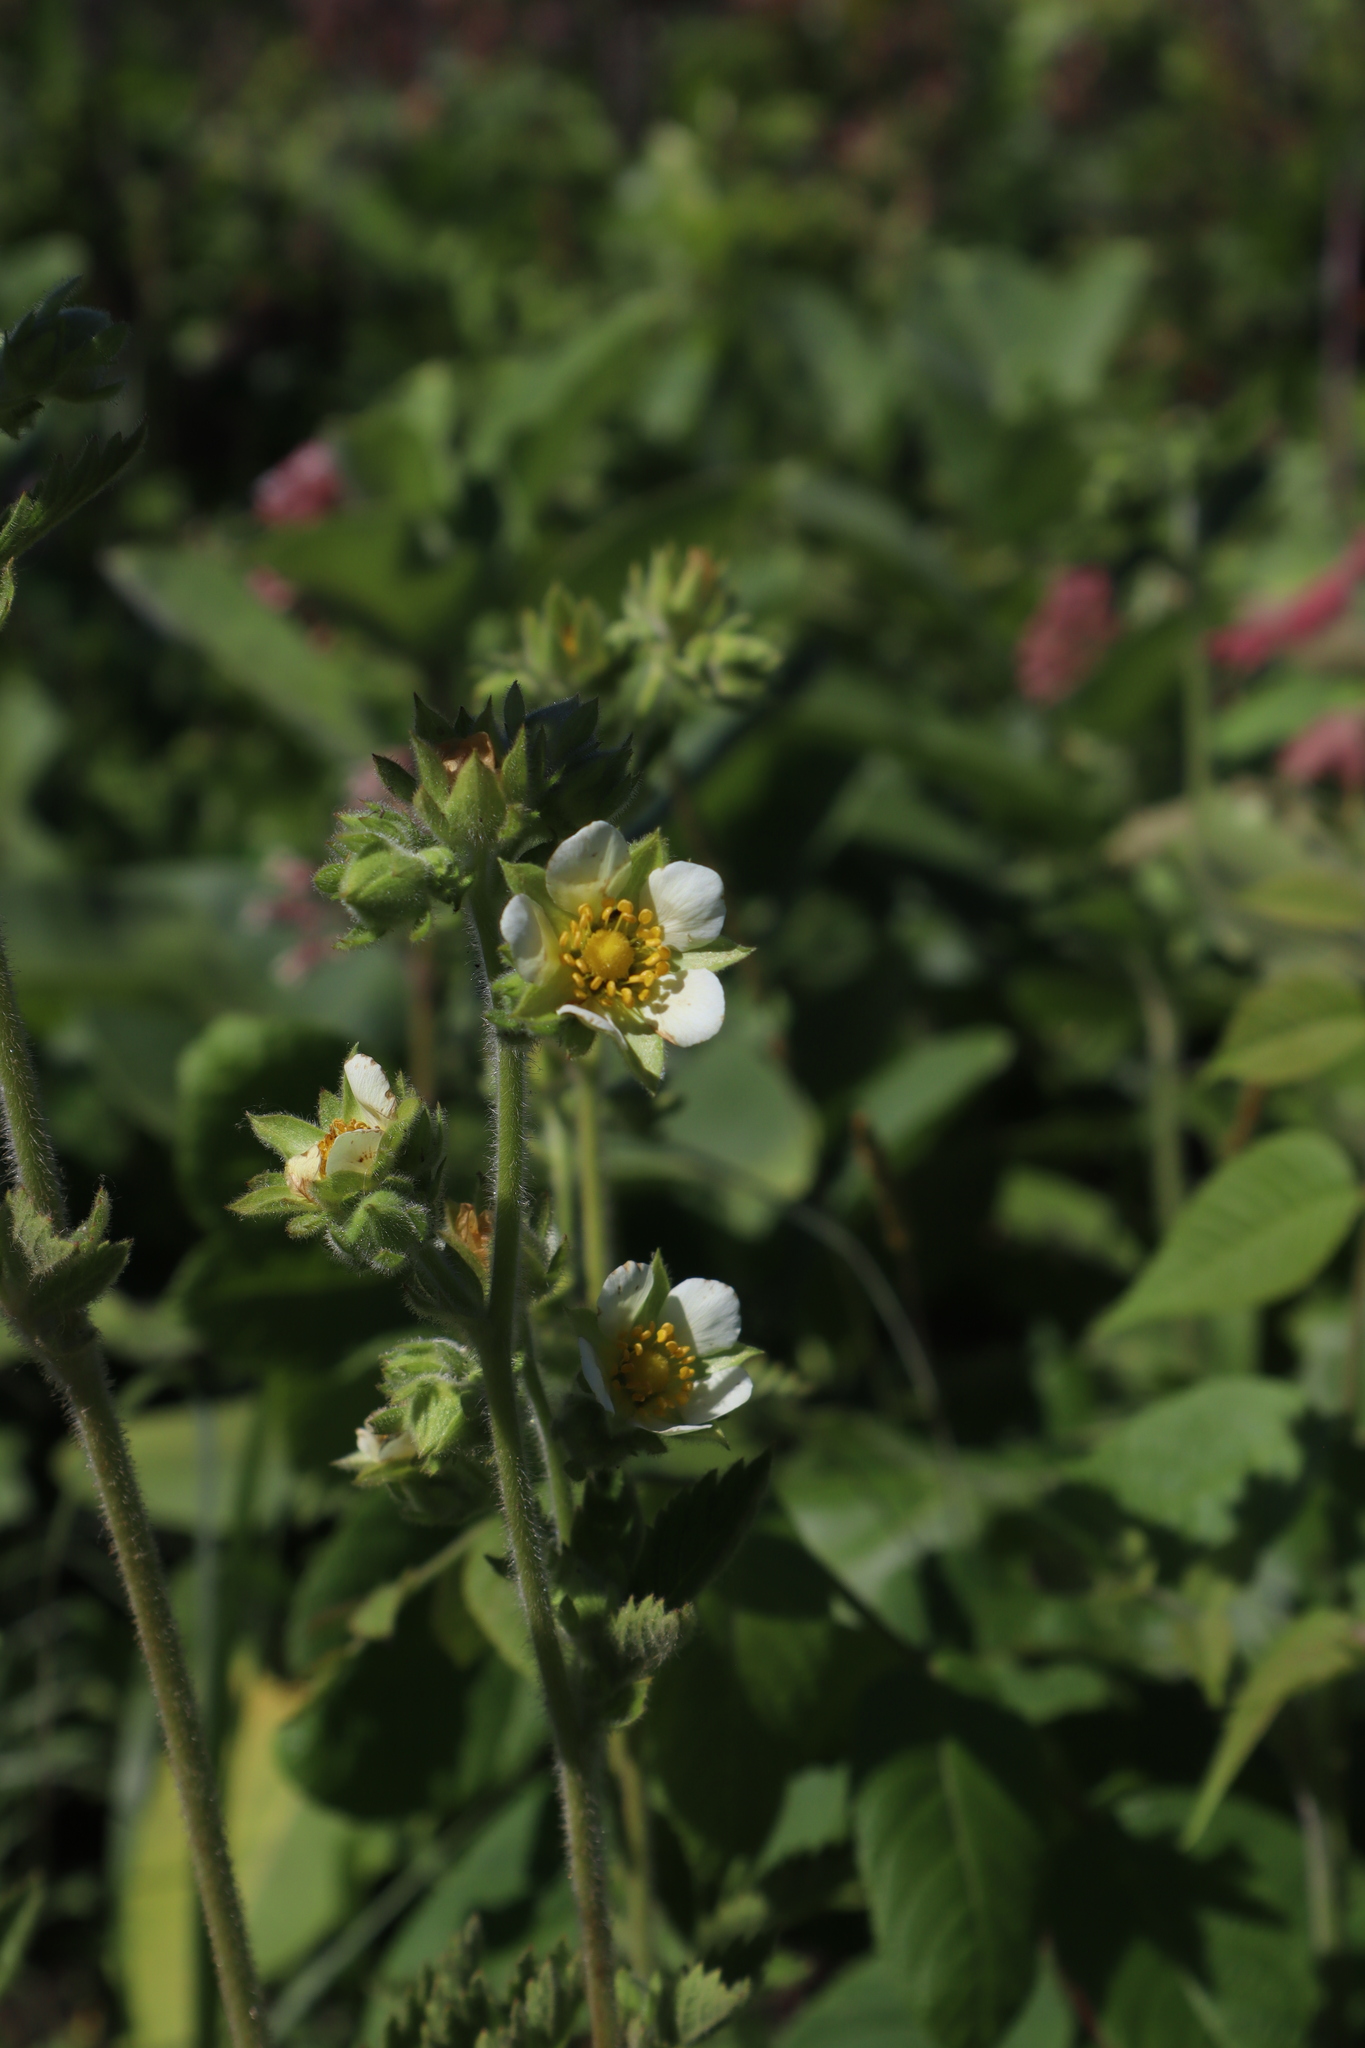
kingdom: Plantae
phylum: Tracheophyta
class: Magnoliopsida
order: Rosales
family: Rosaceae
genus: Drymocallis
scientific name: Drymocallis arguta
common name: Tall cinquefoil
